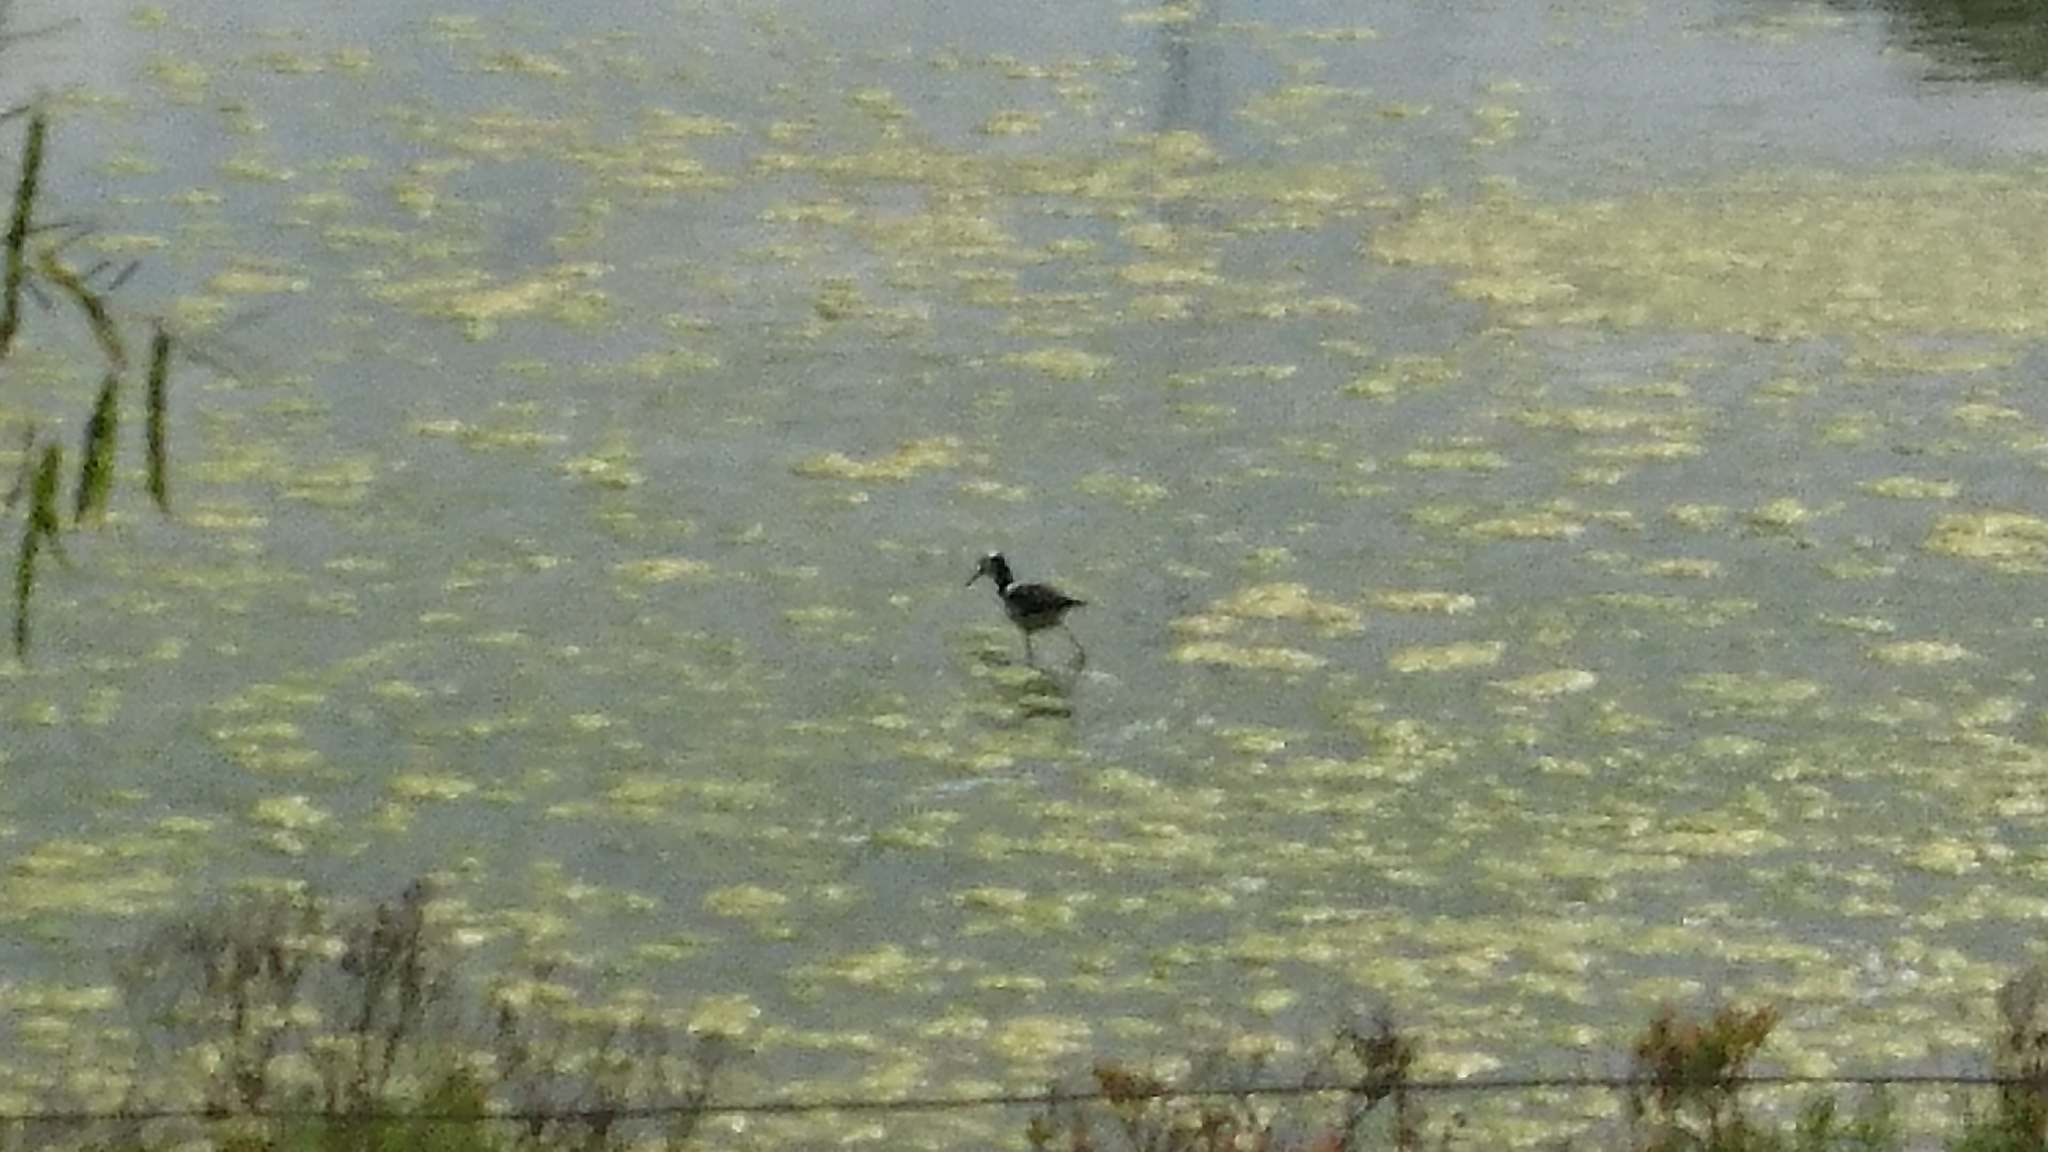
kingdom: Animalia
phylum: Chordata
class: Aves
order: Charadriiformes
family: Recurvirostridae
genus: Himantopus
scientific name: Himantopus leucocephalus
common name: White-headed stilt
